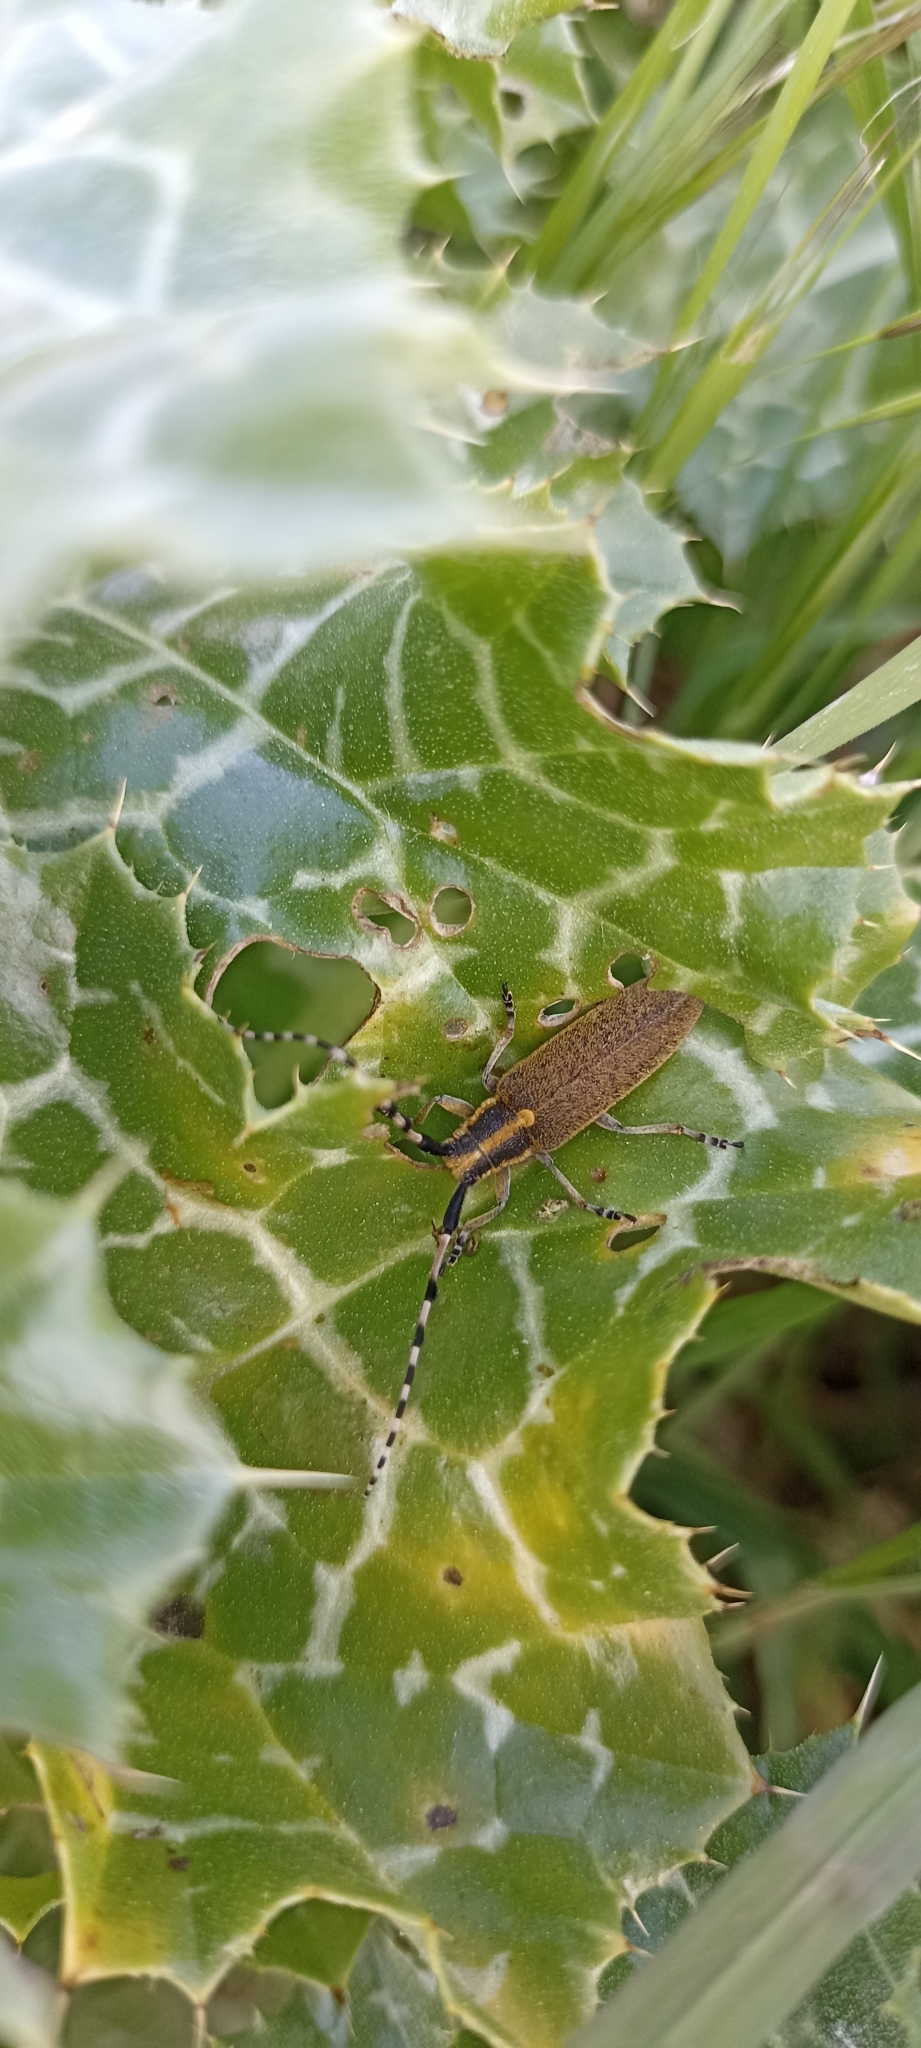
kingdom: Animalia
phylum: Arthropoda
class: Insecta
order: Coleoptera
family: Cerambycidae
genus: Agapanthia
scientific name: Agapanthia dahlii
